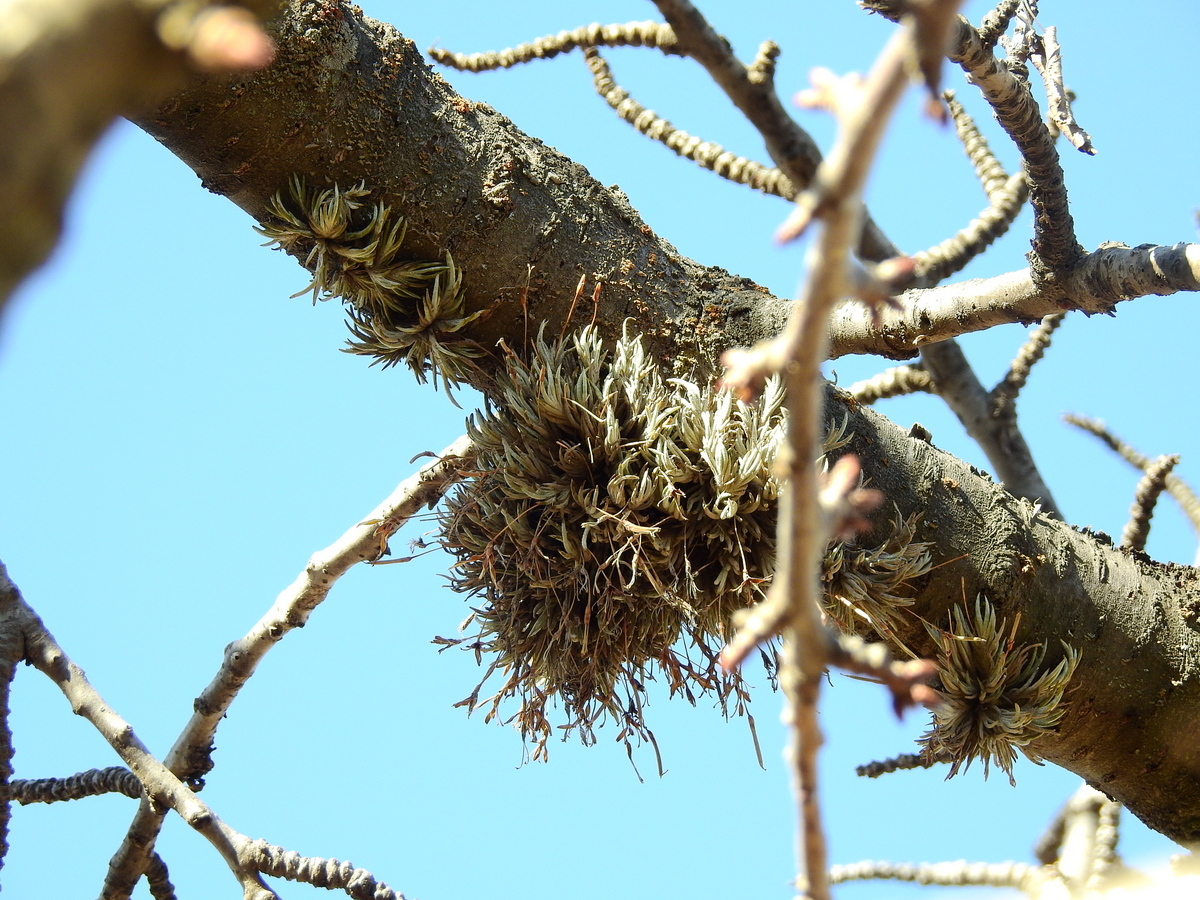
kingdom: Plantae
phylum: Tracheophyta
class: Liliopsida
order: Poales
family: Bromeliaceae
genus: Tillandsia
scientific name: Tillandsia capillaris
